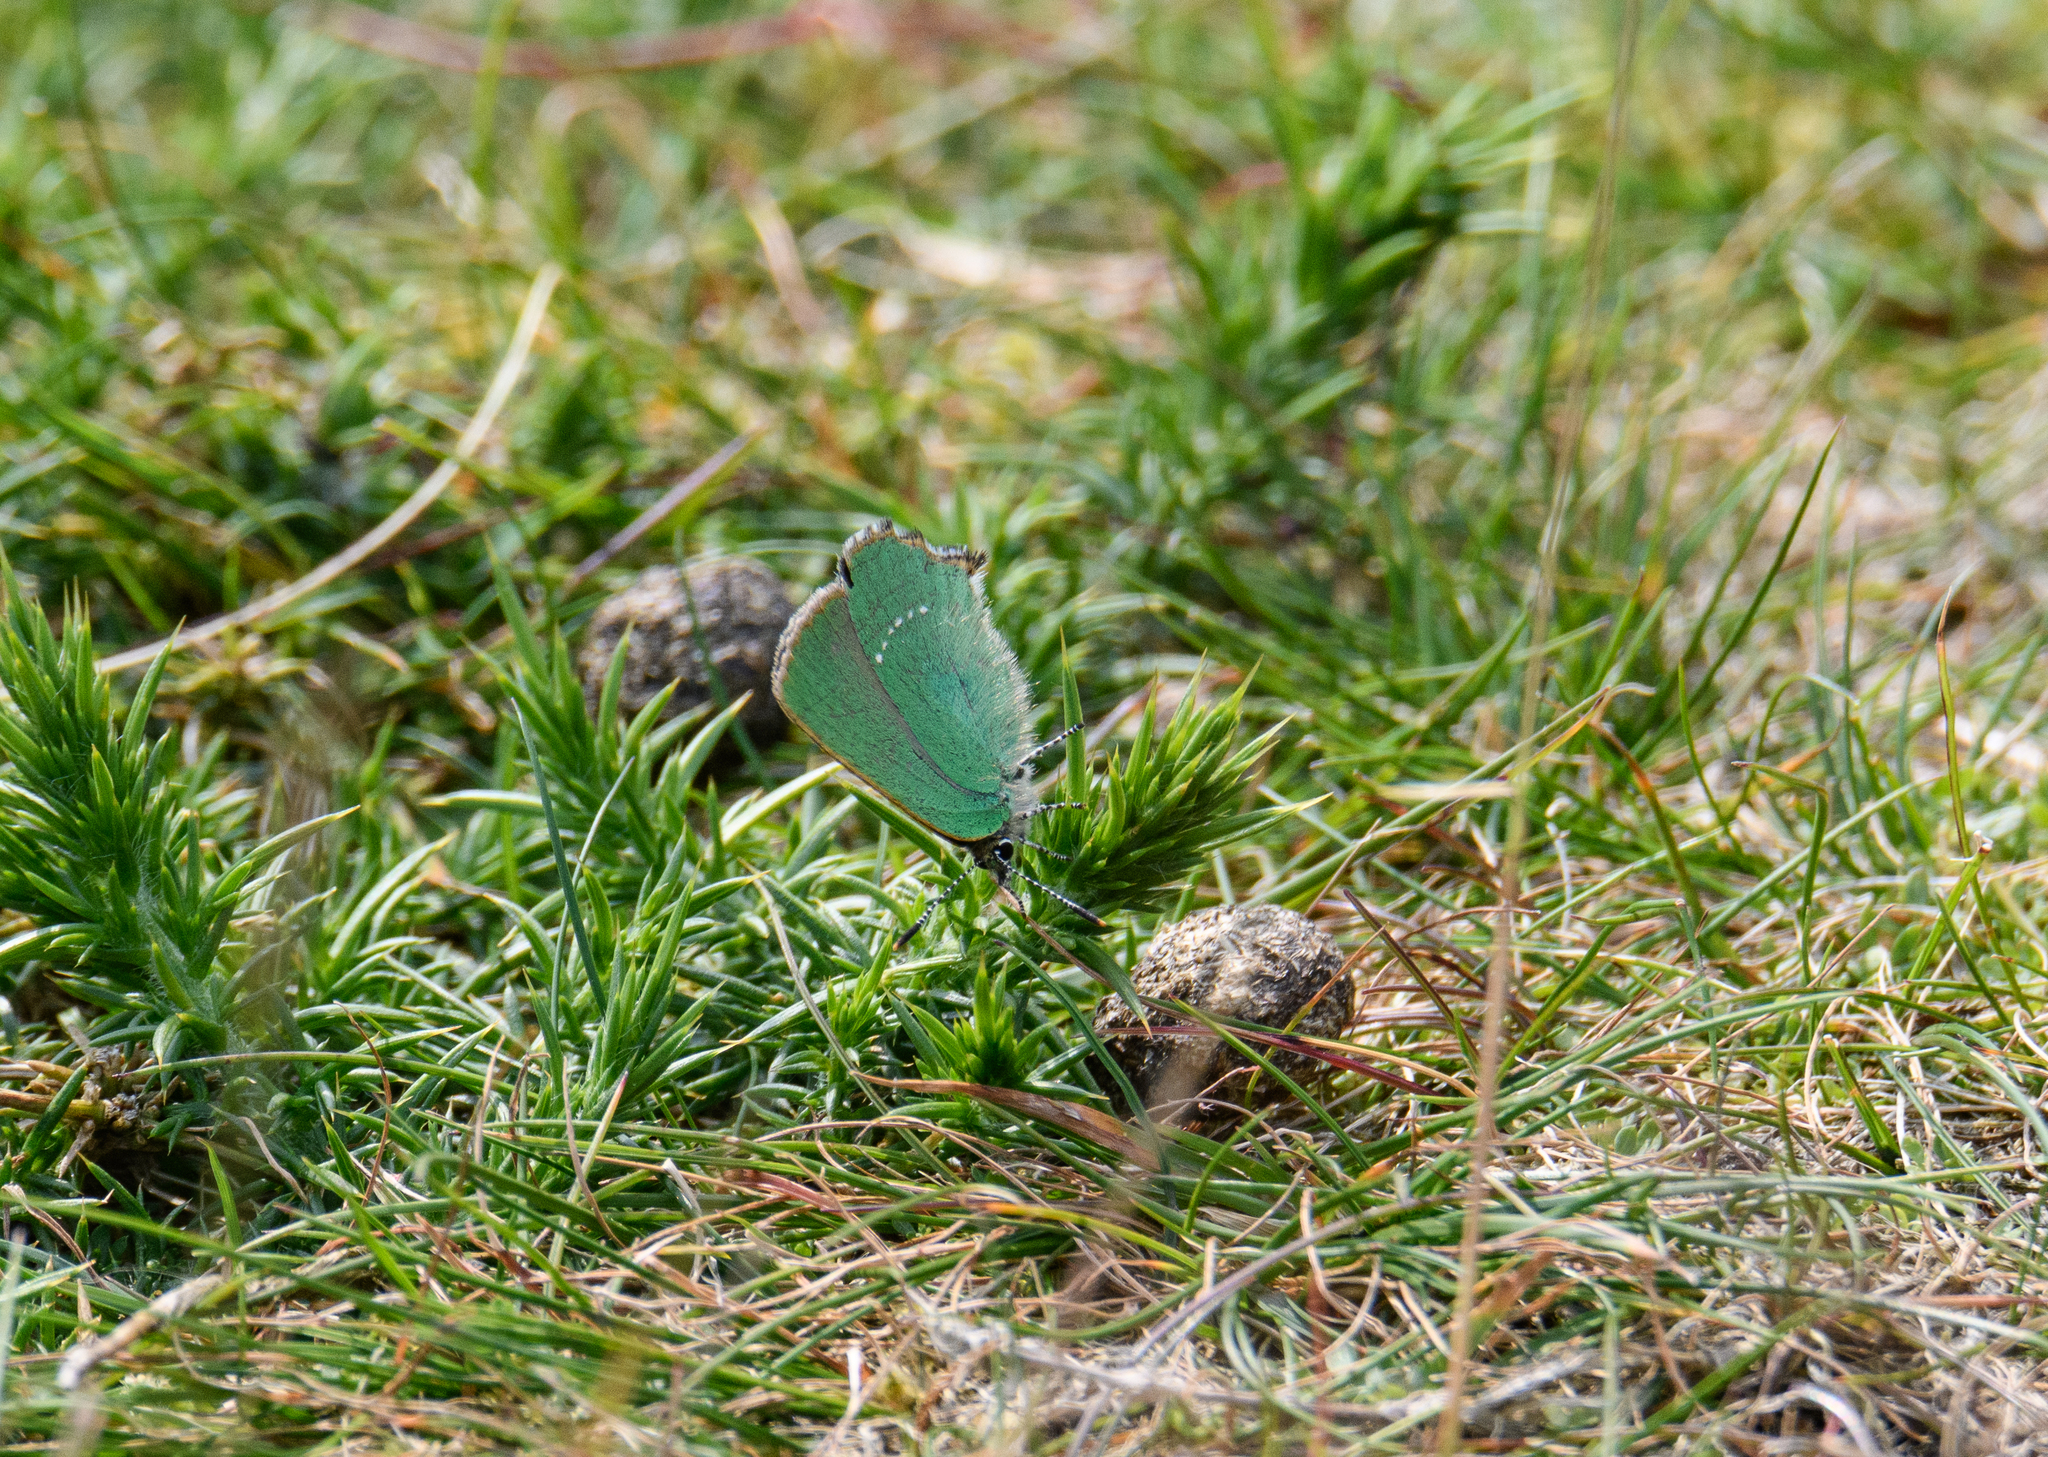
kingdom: Animalia
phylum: Arthropoda
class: Insecta
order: Lepidoptera
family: Lycaenidae
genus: Callophrys
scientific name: Callophrys rubi
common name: Green hairstreak
